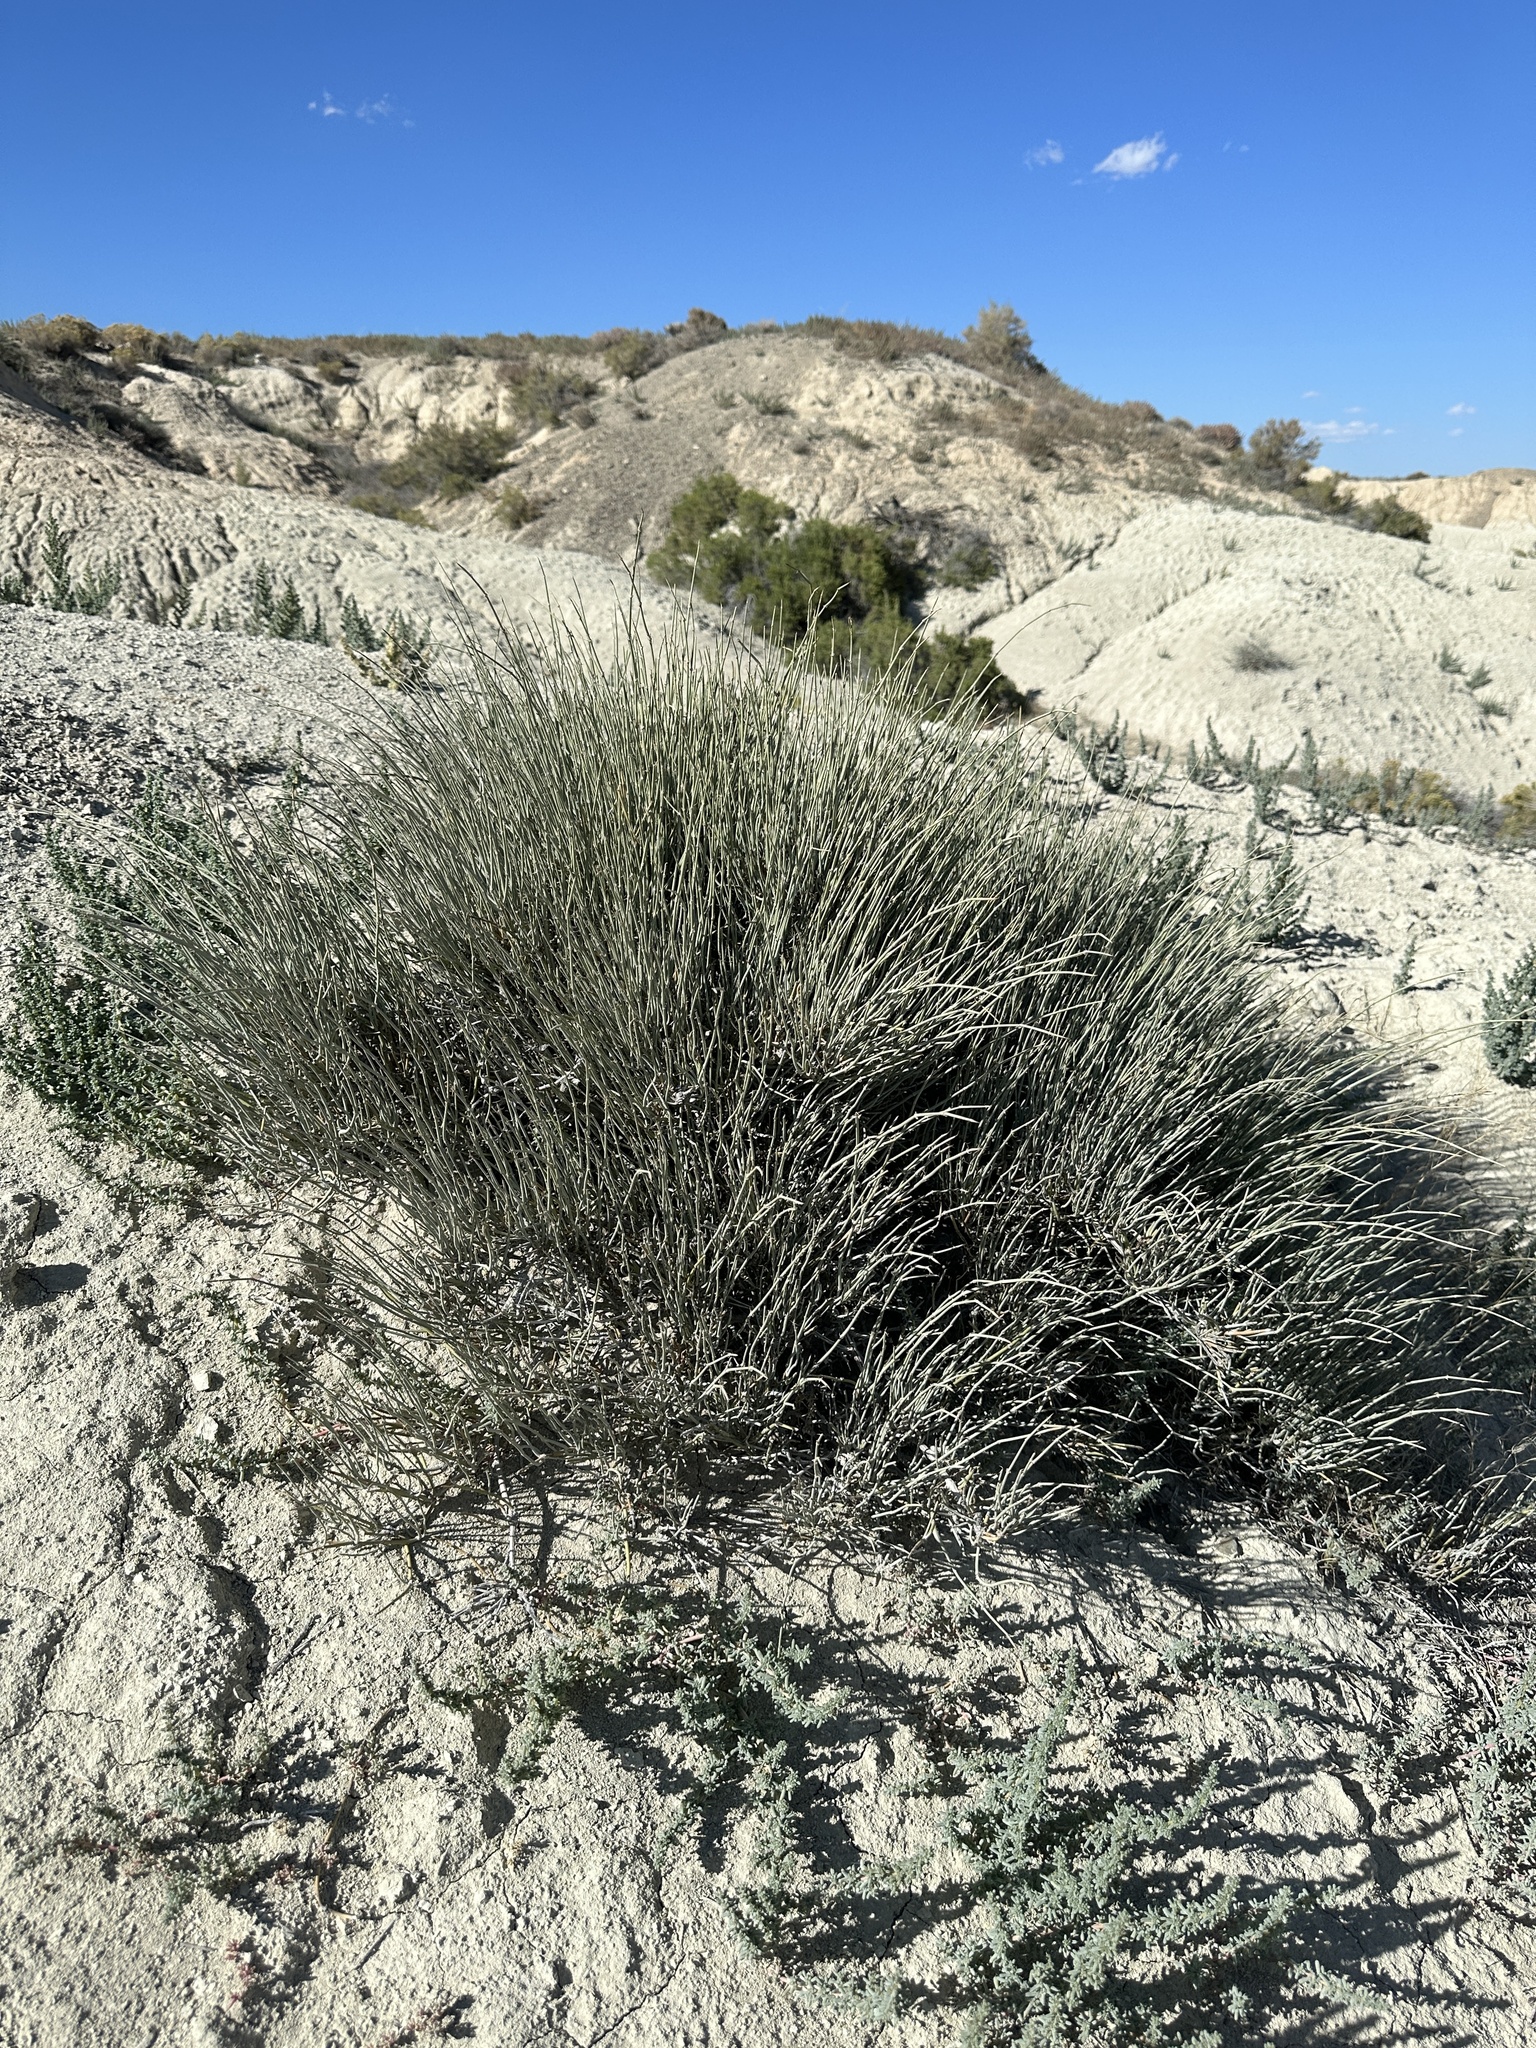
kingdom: Plantae
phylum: Tracheophyta
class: Gnetopsida
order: Ephedrales
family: Ephedraceae
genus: Ephedra
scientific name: Ephedra nevadensis
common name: Gray ephedra
